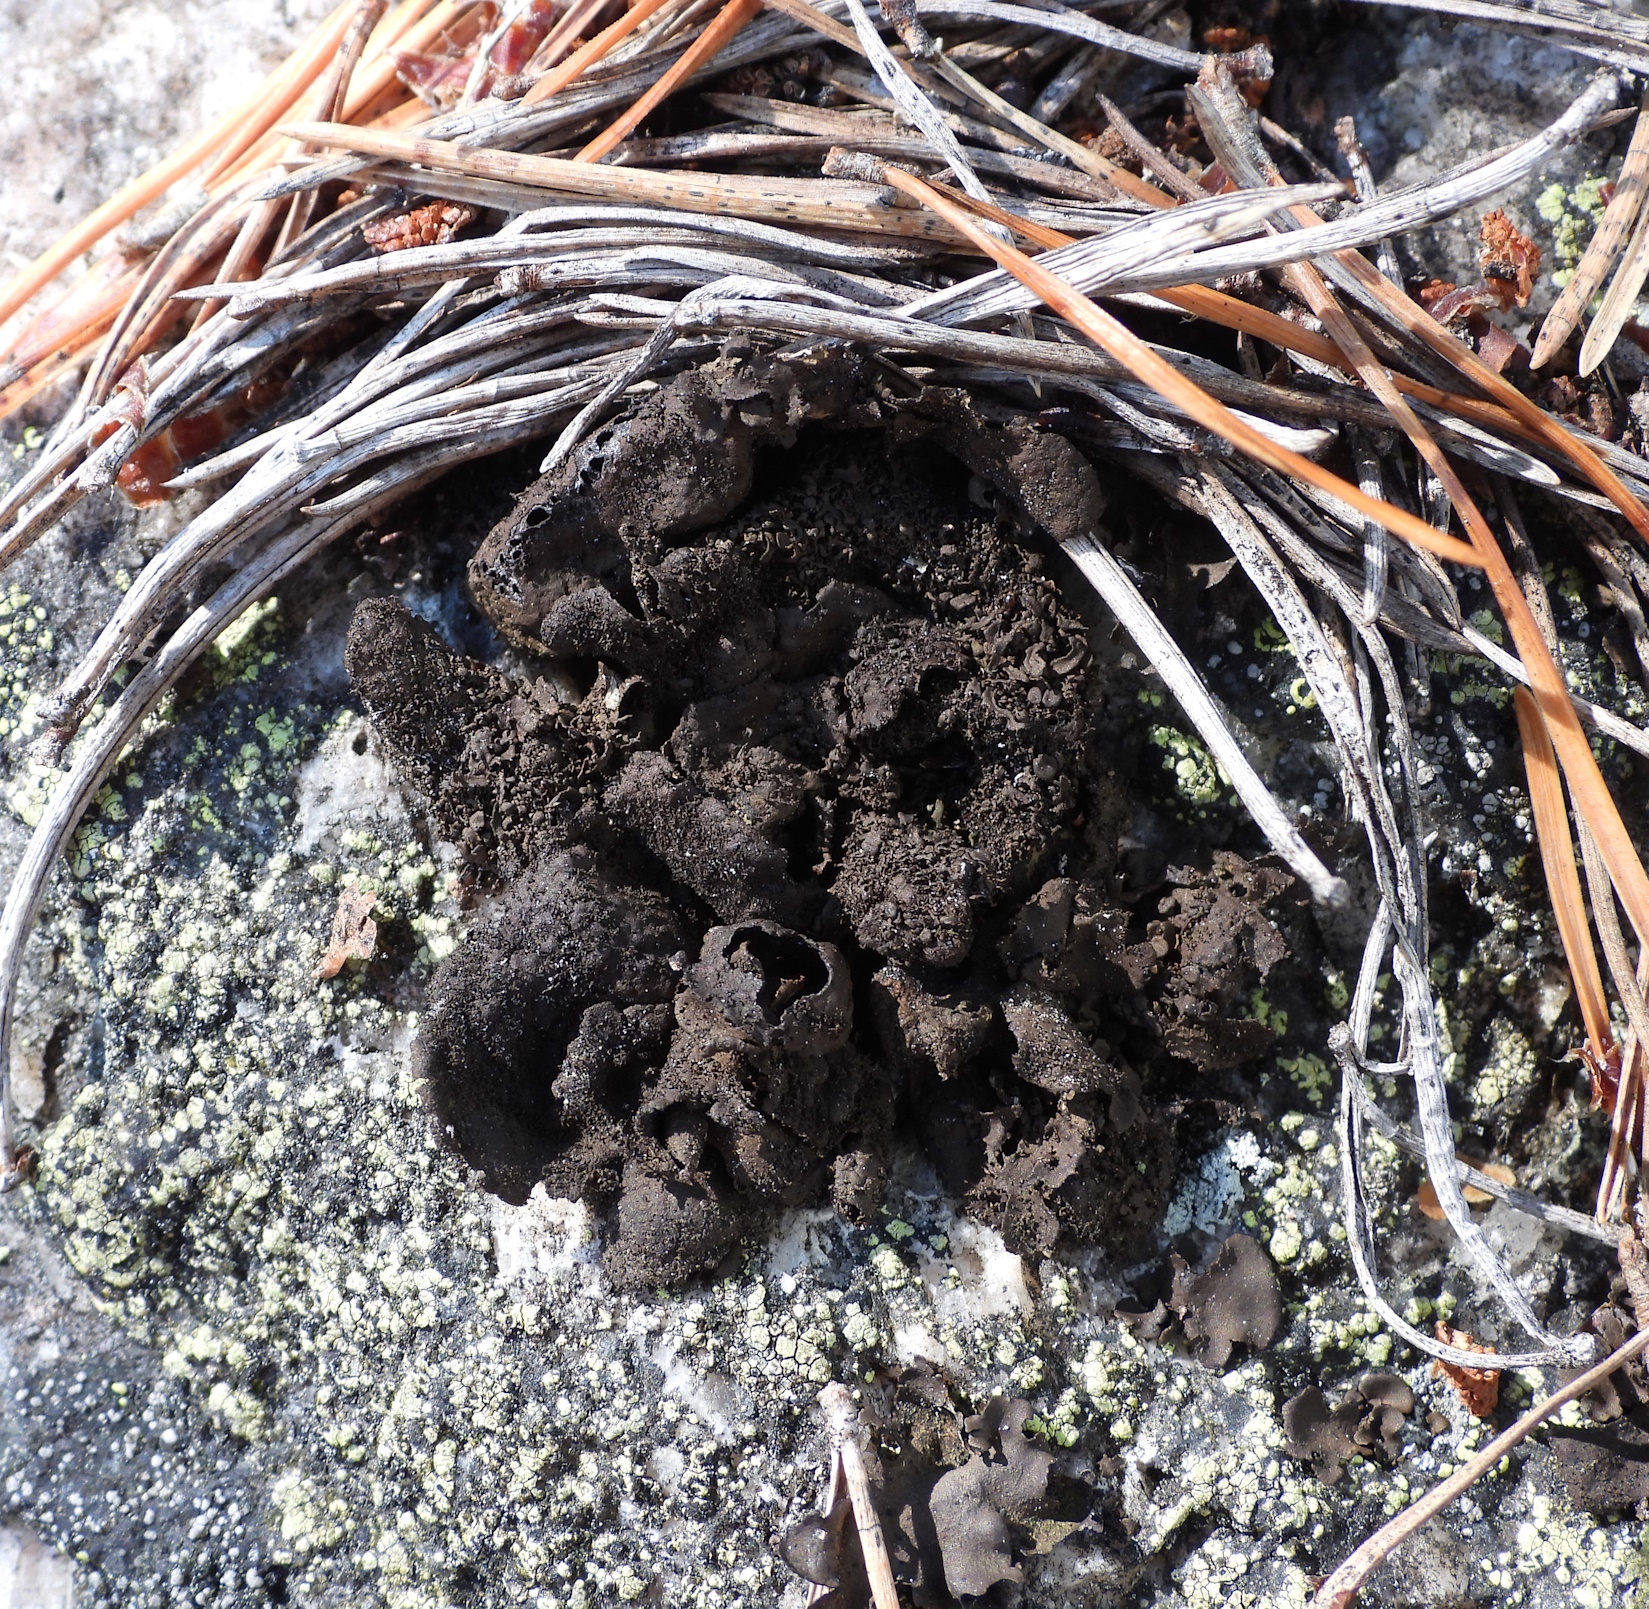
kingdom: Fungi
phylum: Ascomycota
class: Lecanoromycetes
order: Umbilicariales
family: Umbilicariaceae
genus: Umbilicaria
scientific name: Umbilicaria deusta
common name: Peppered rock tripe
